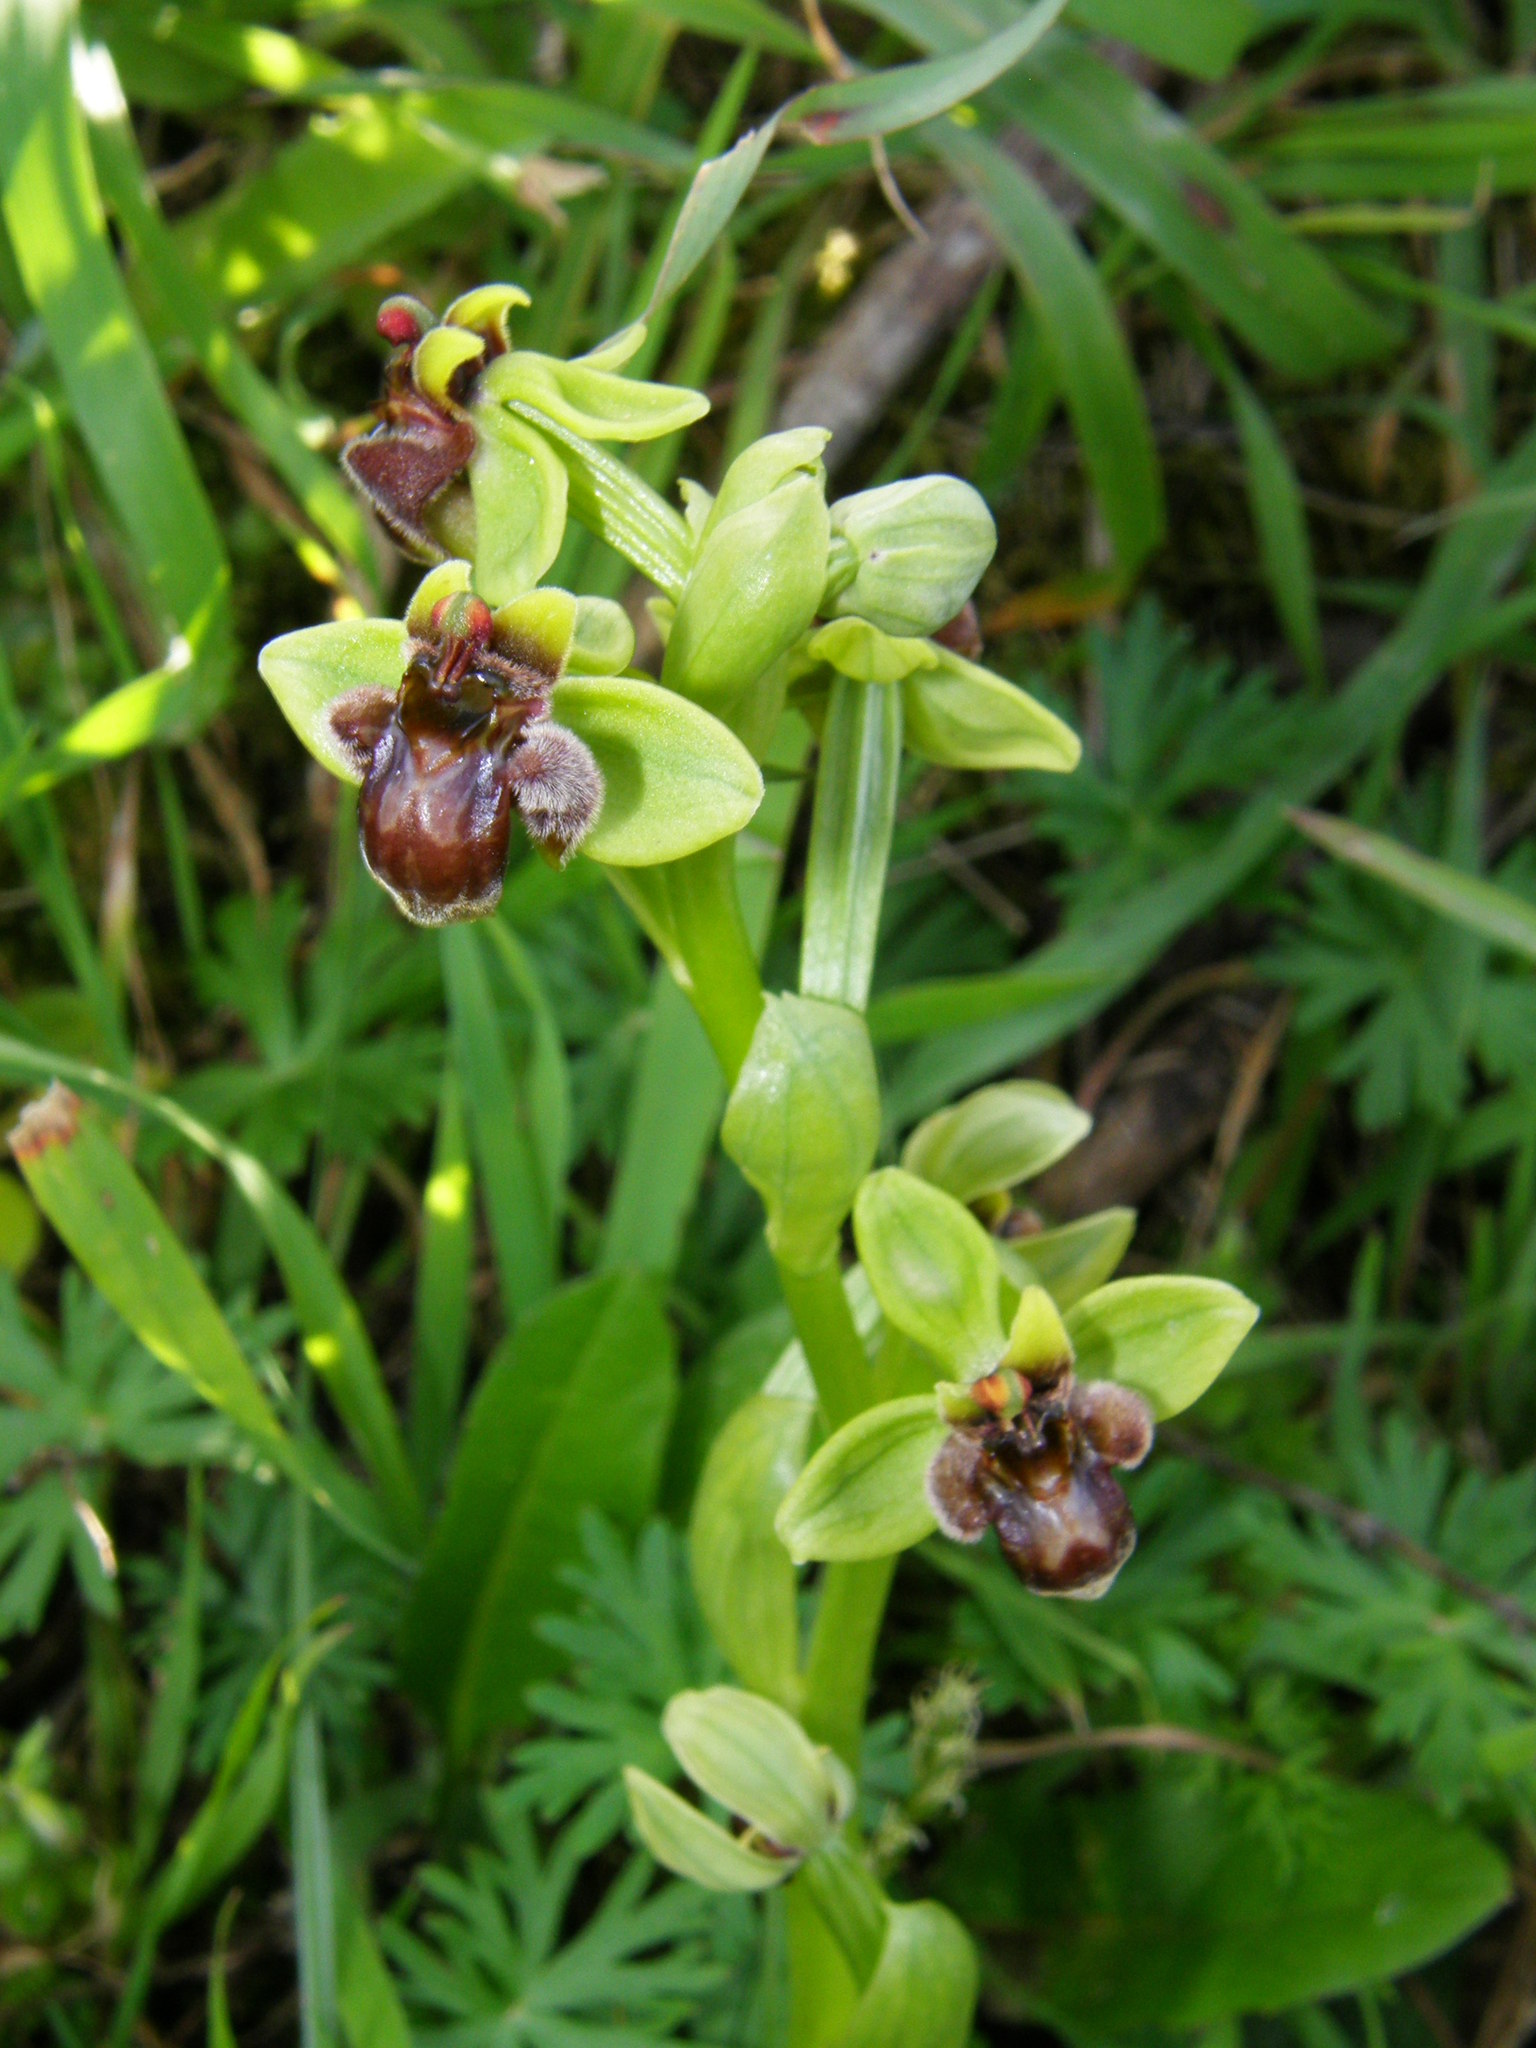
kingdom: Plantae
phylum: Tracheophyta
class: Liliopsida
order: Asparagales
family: Orchidaceae
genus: Ophrys
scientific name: Ophrys bombyliflora
